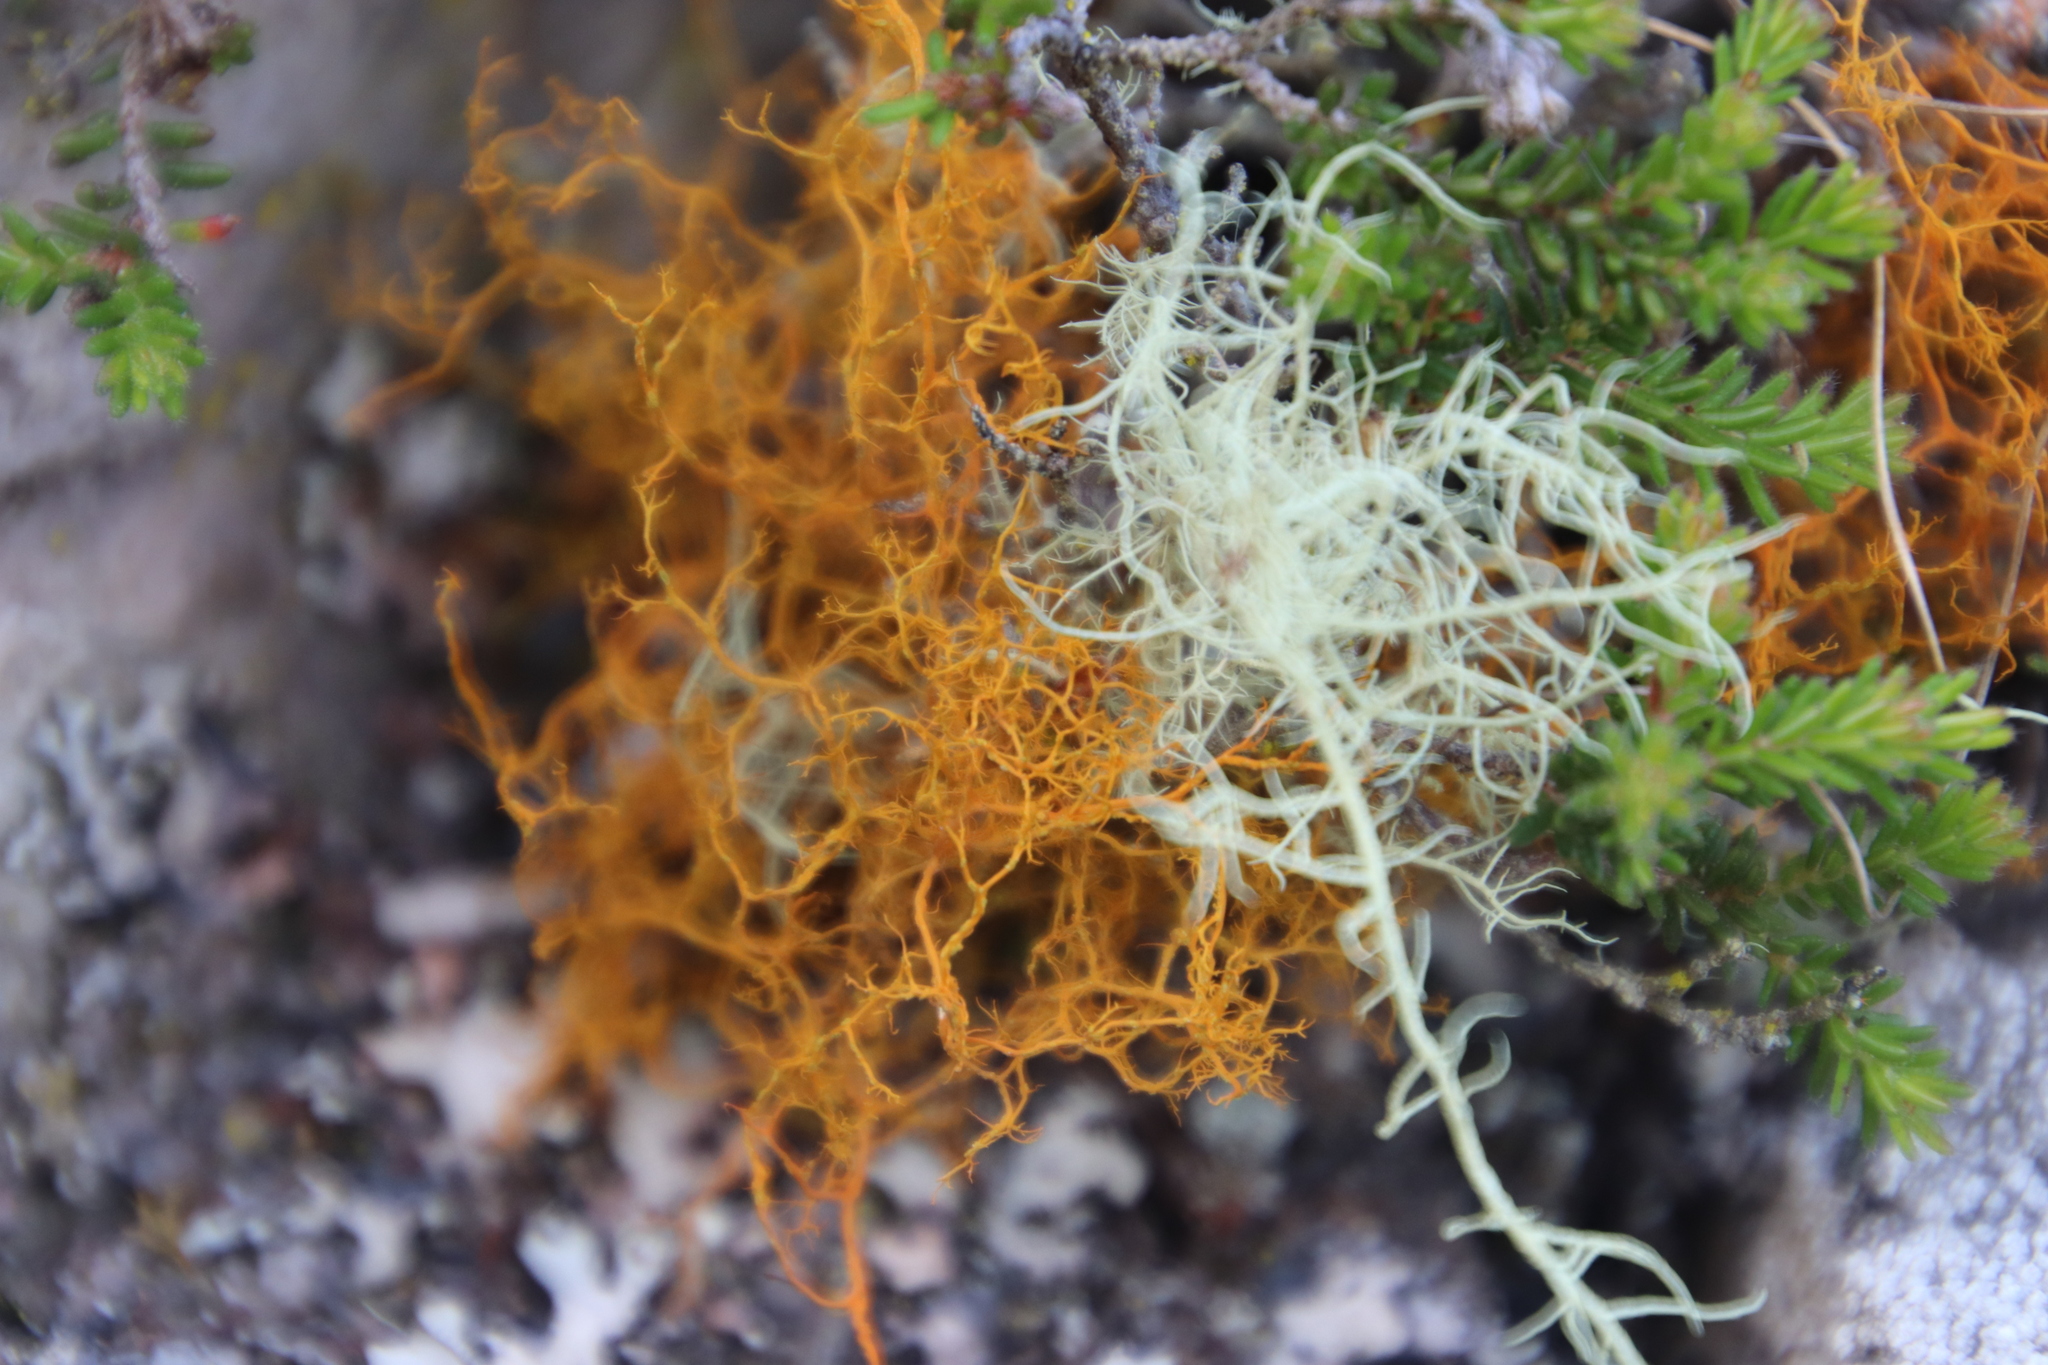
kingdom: Fungi
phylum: Ascomycota
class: Lecanoromycetes
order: Teloschistales
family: Teloschistaceae
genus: Teloschistes
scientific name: Teloschistes flavicans
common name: Golden hair-lichen
